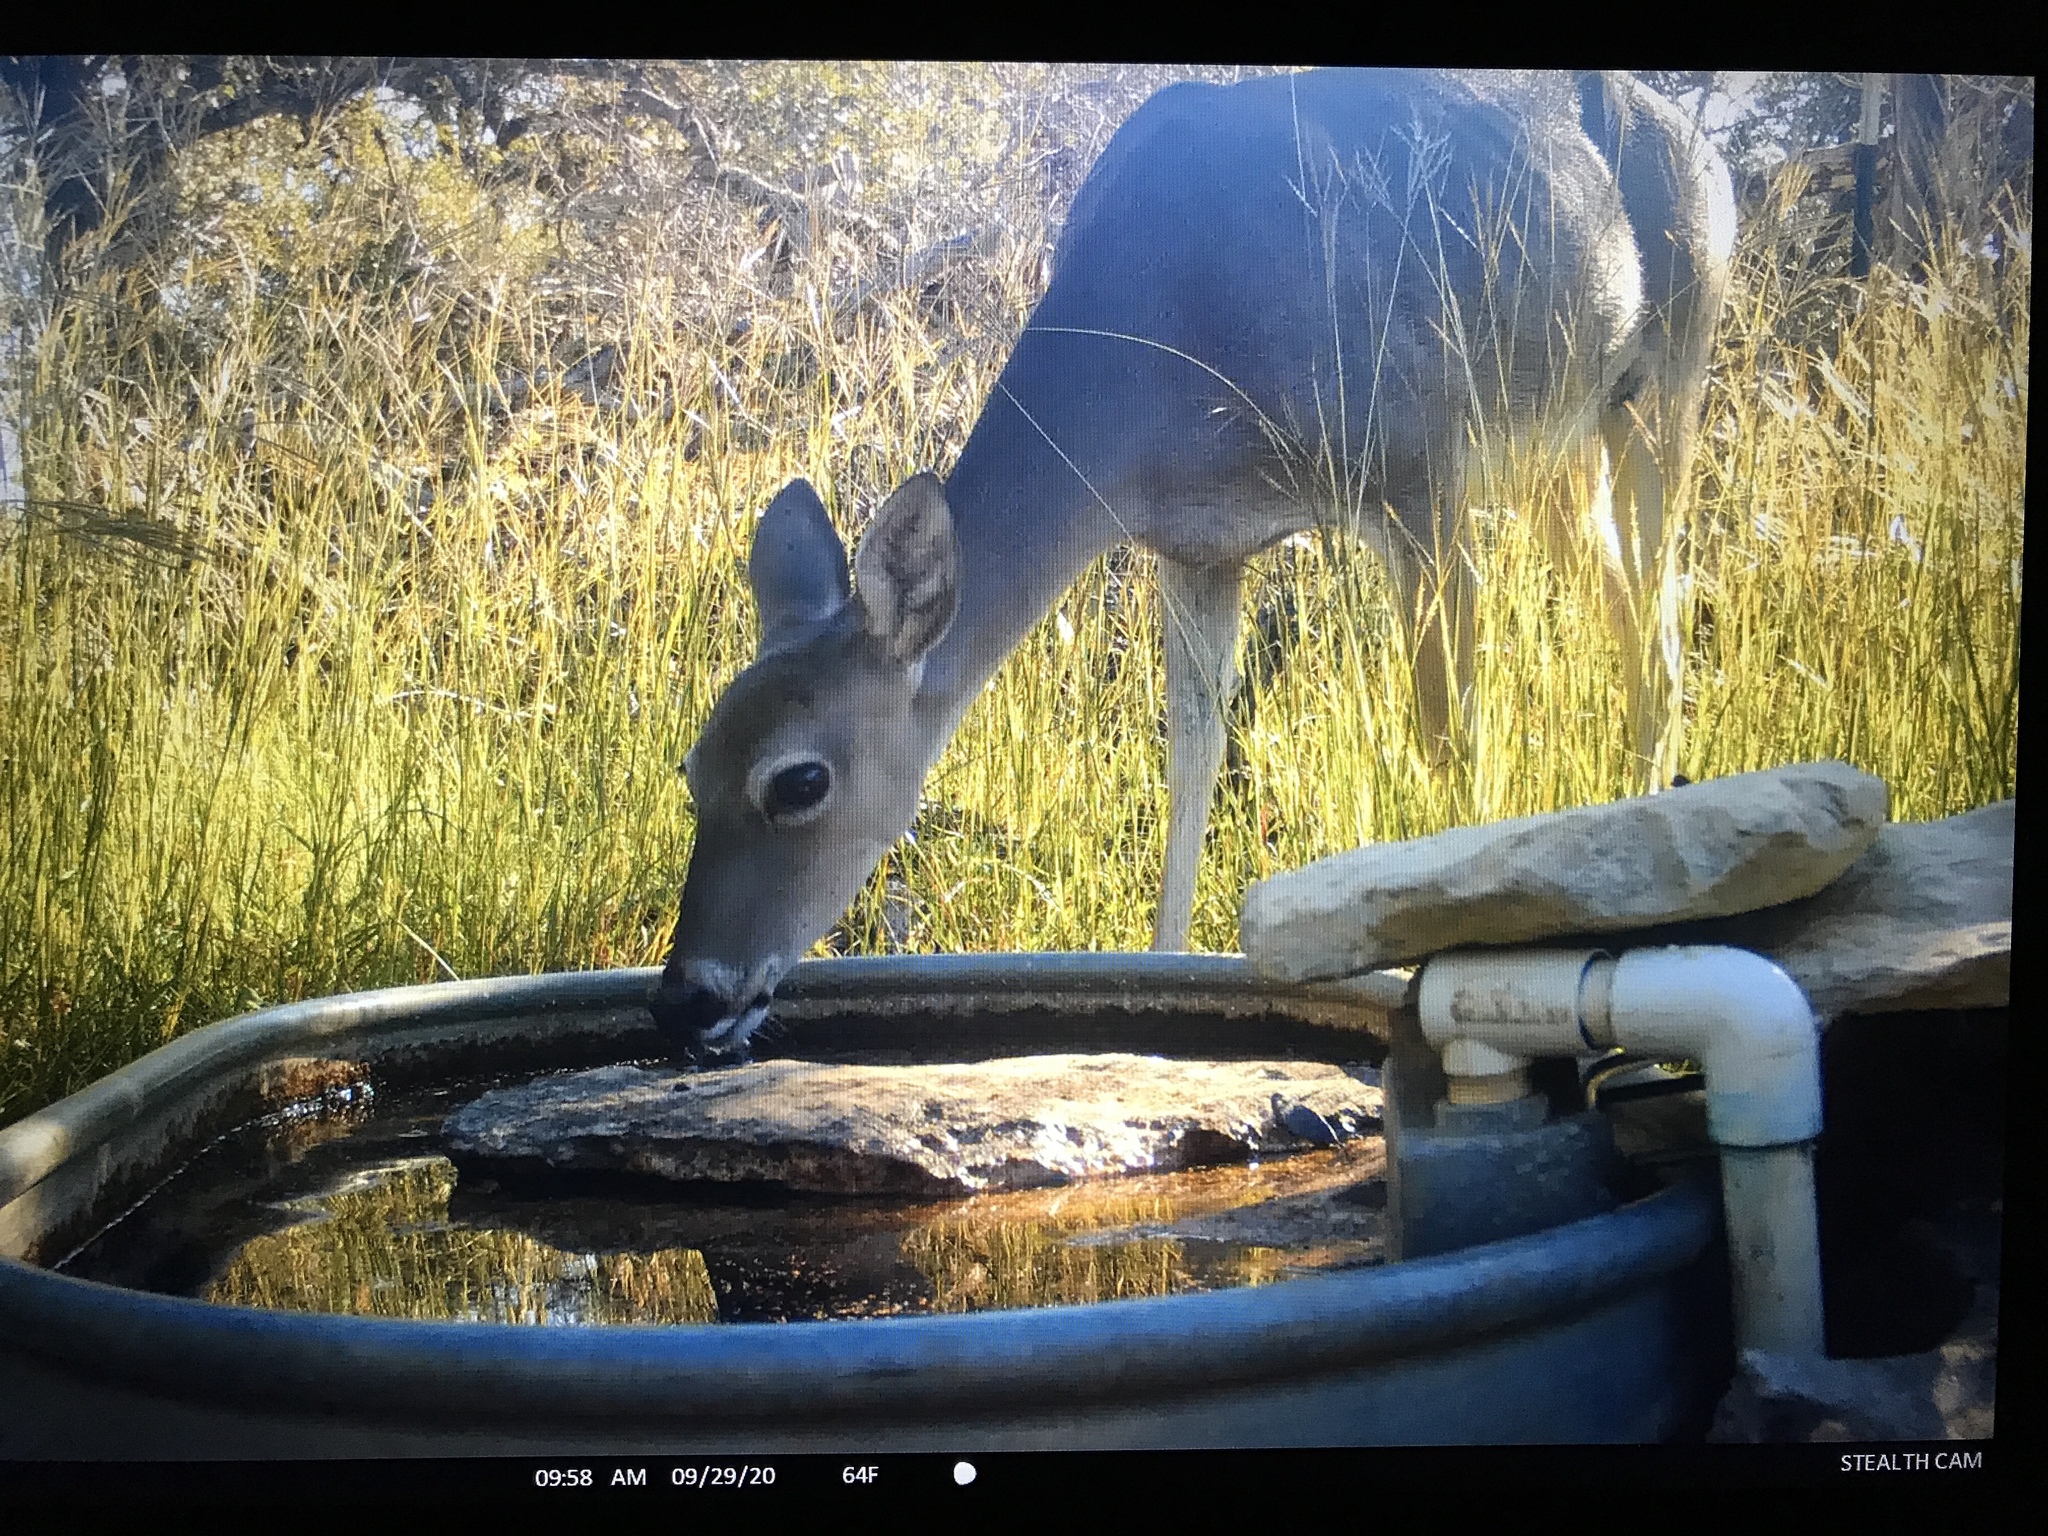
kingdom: Animalia
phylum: Chordata
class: Mammalia
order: Artiodactyla
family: Cervidae
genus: Odocoileus
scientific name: Odocoileus virginianus
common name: White-tailed deer
